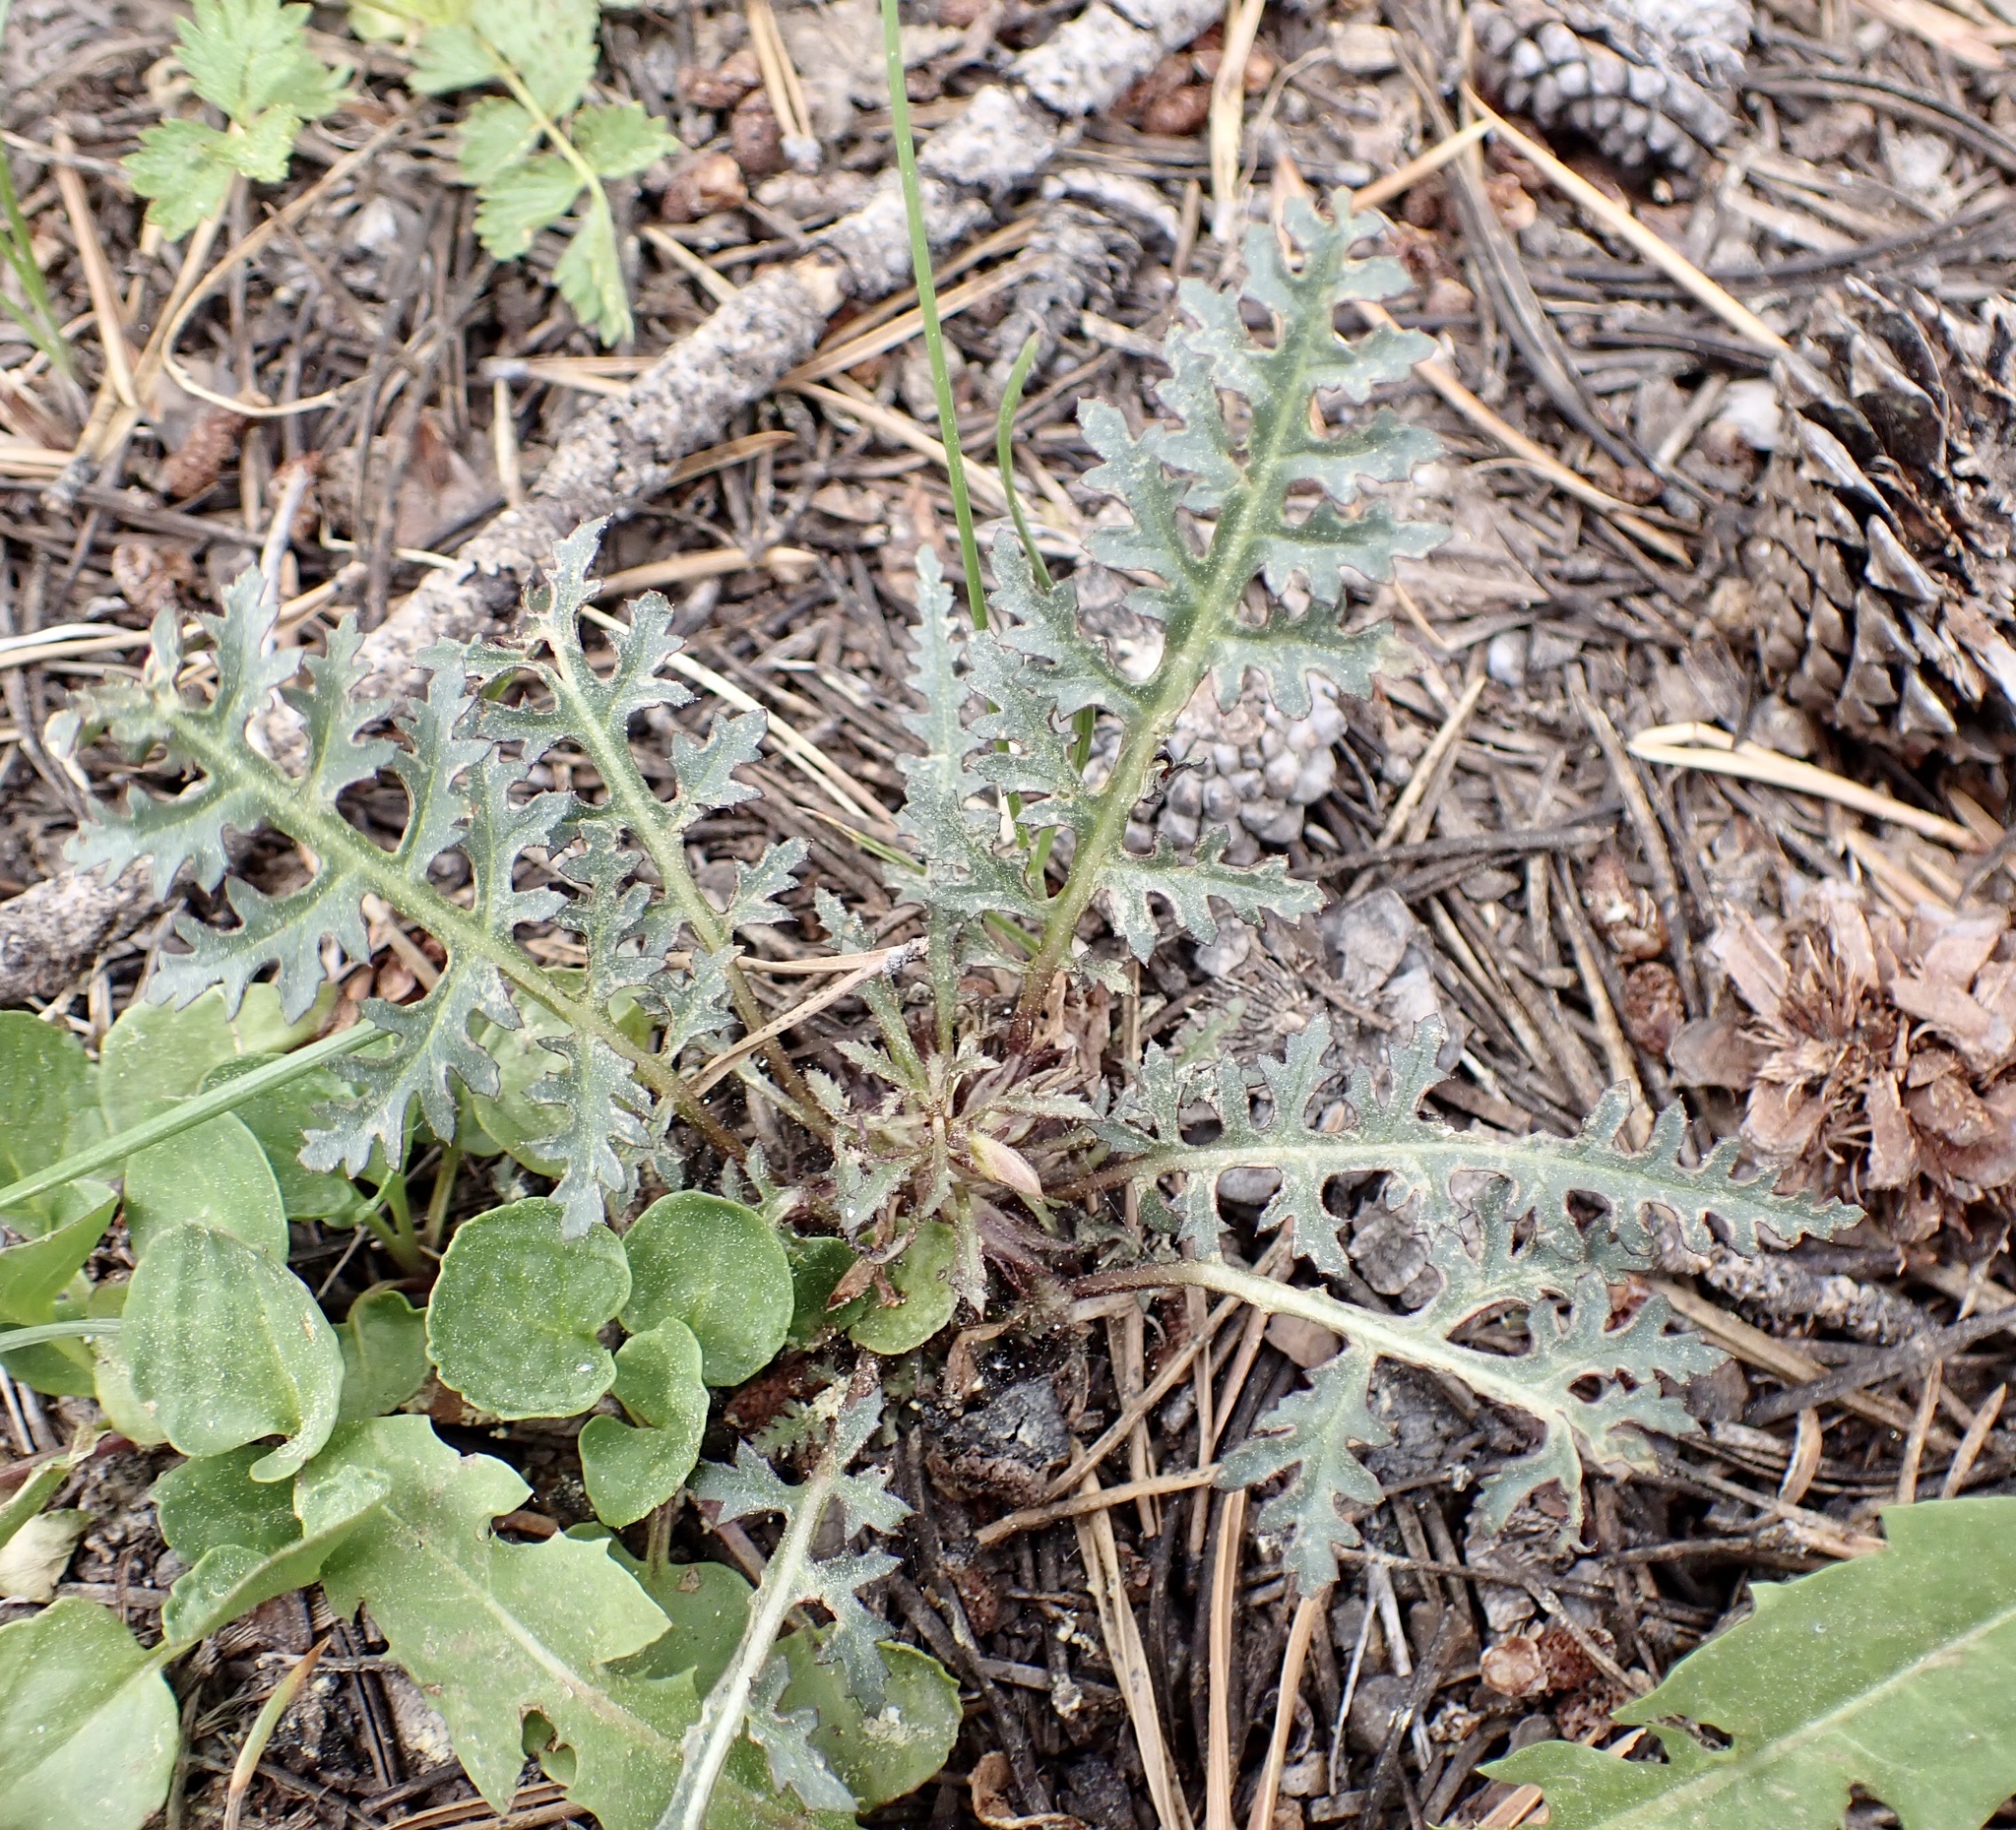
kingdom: Plantae
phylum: Tracheophyta
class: Magnoliopsida
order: Lamiales
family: Orobanchaceae
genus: Pedicularis
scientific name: Pedicularis semibarbata
